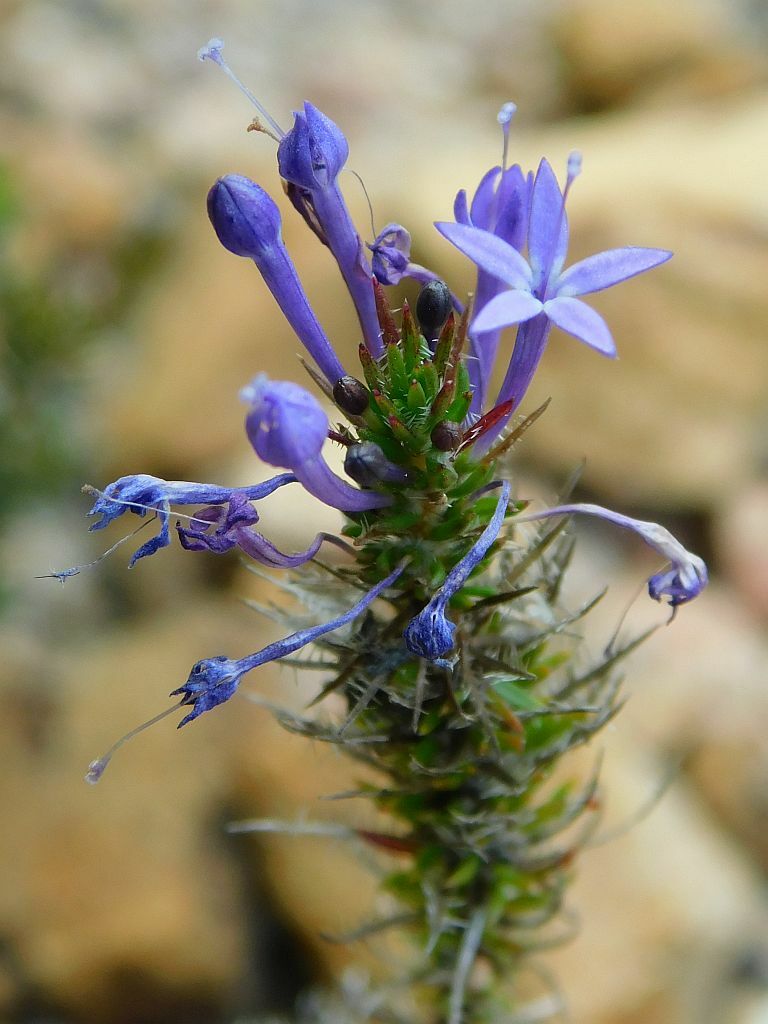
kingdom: Plantae
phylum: Tracheophyta
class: Magnoliopsida
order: Asterales
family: Campanulaceae
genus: Merciera
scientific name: Merciera eckloniana
